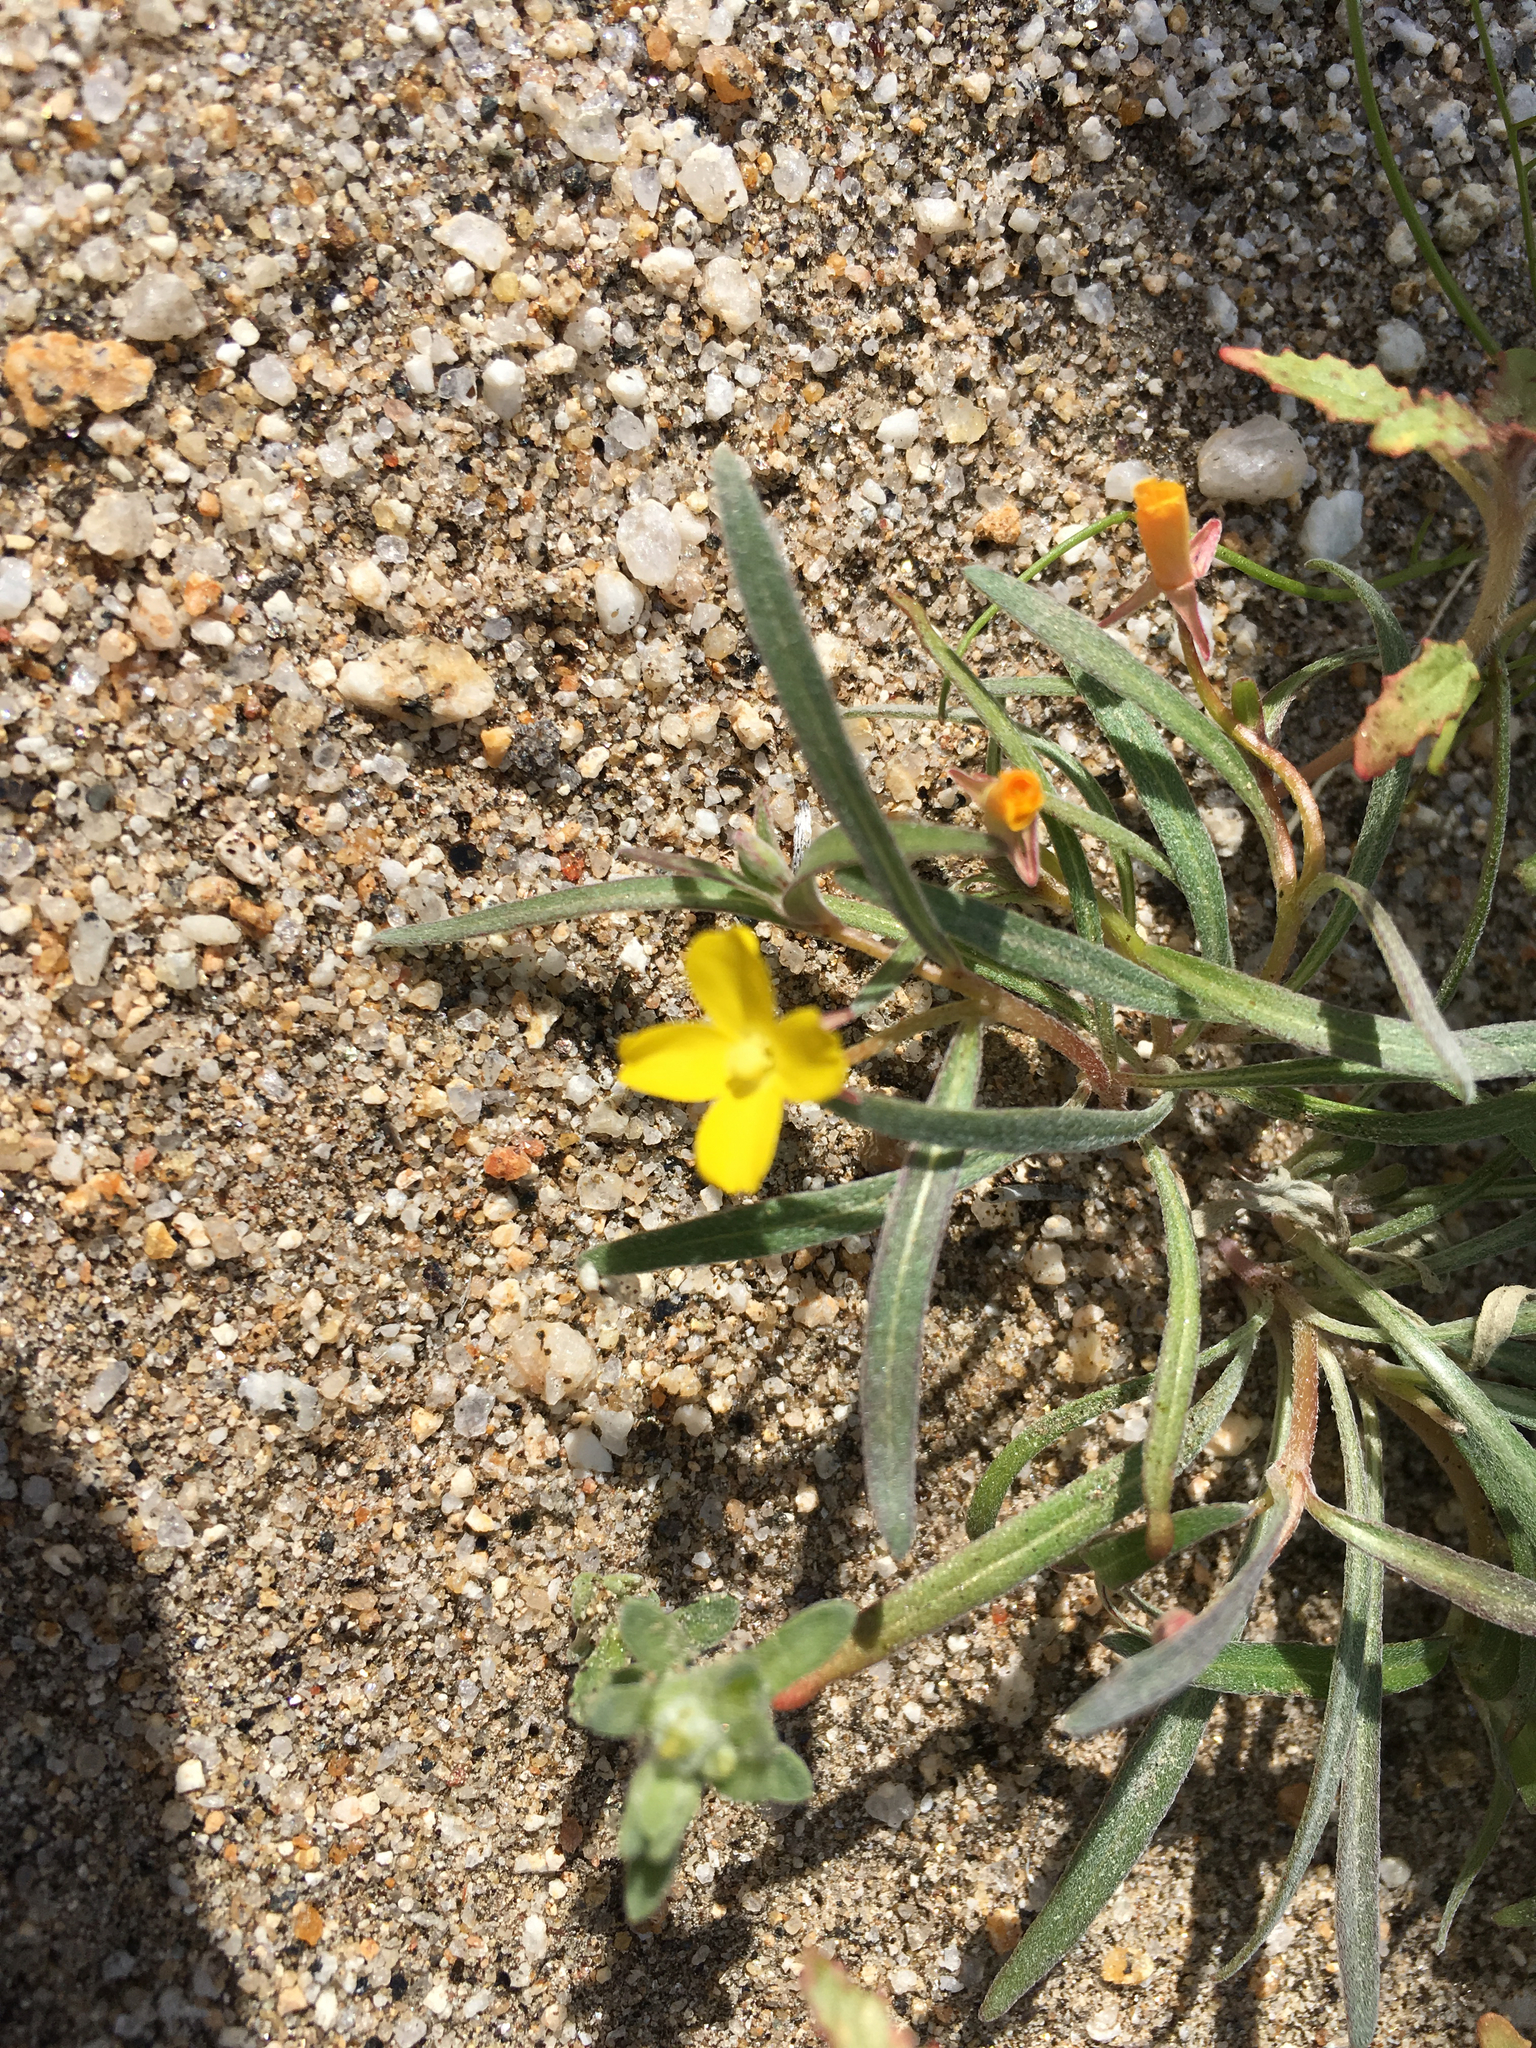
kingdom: Plantae
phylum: Tracheophyta
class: Magnoliopsida
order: Myrtales
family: Onagraceae
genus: Camissoniopsis
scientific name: Camissoniopsis pallida
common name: Paleyellow suncup
